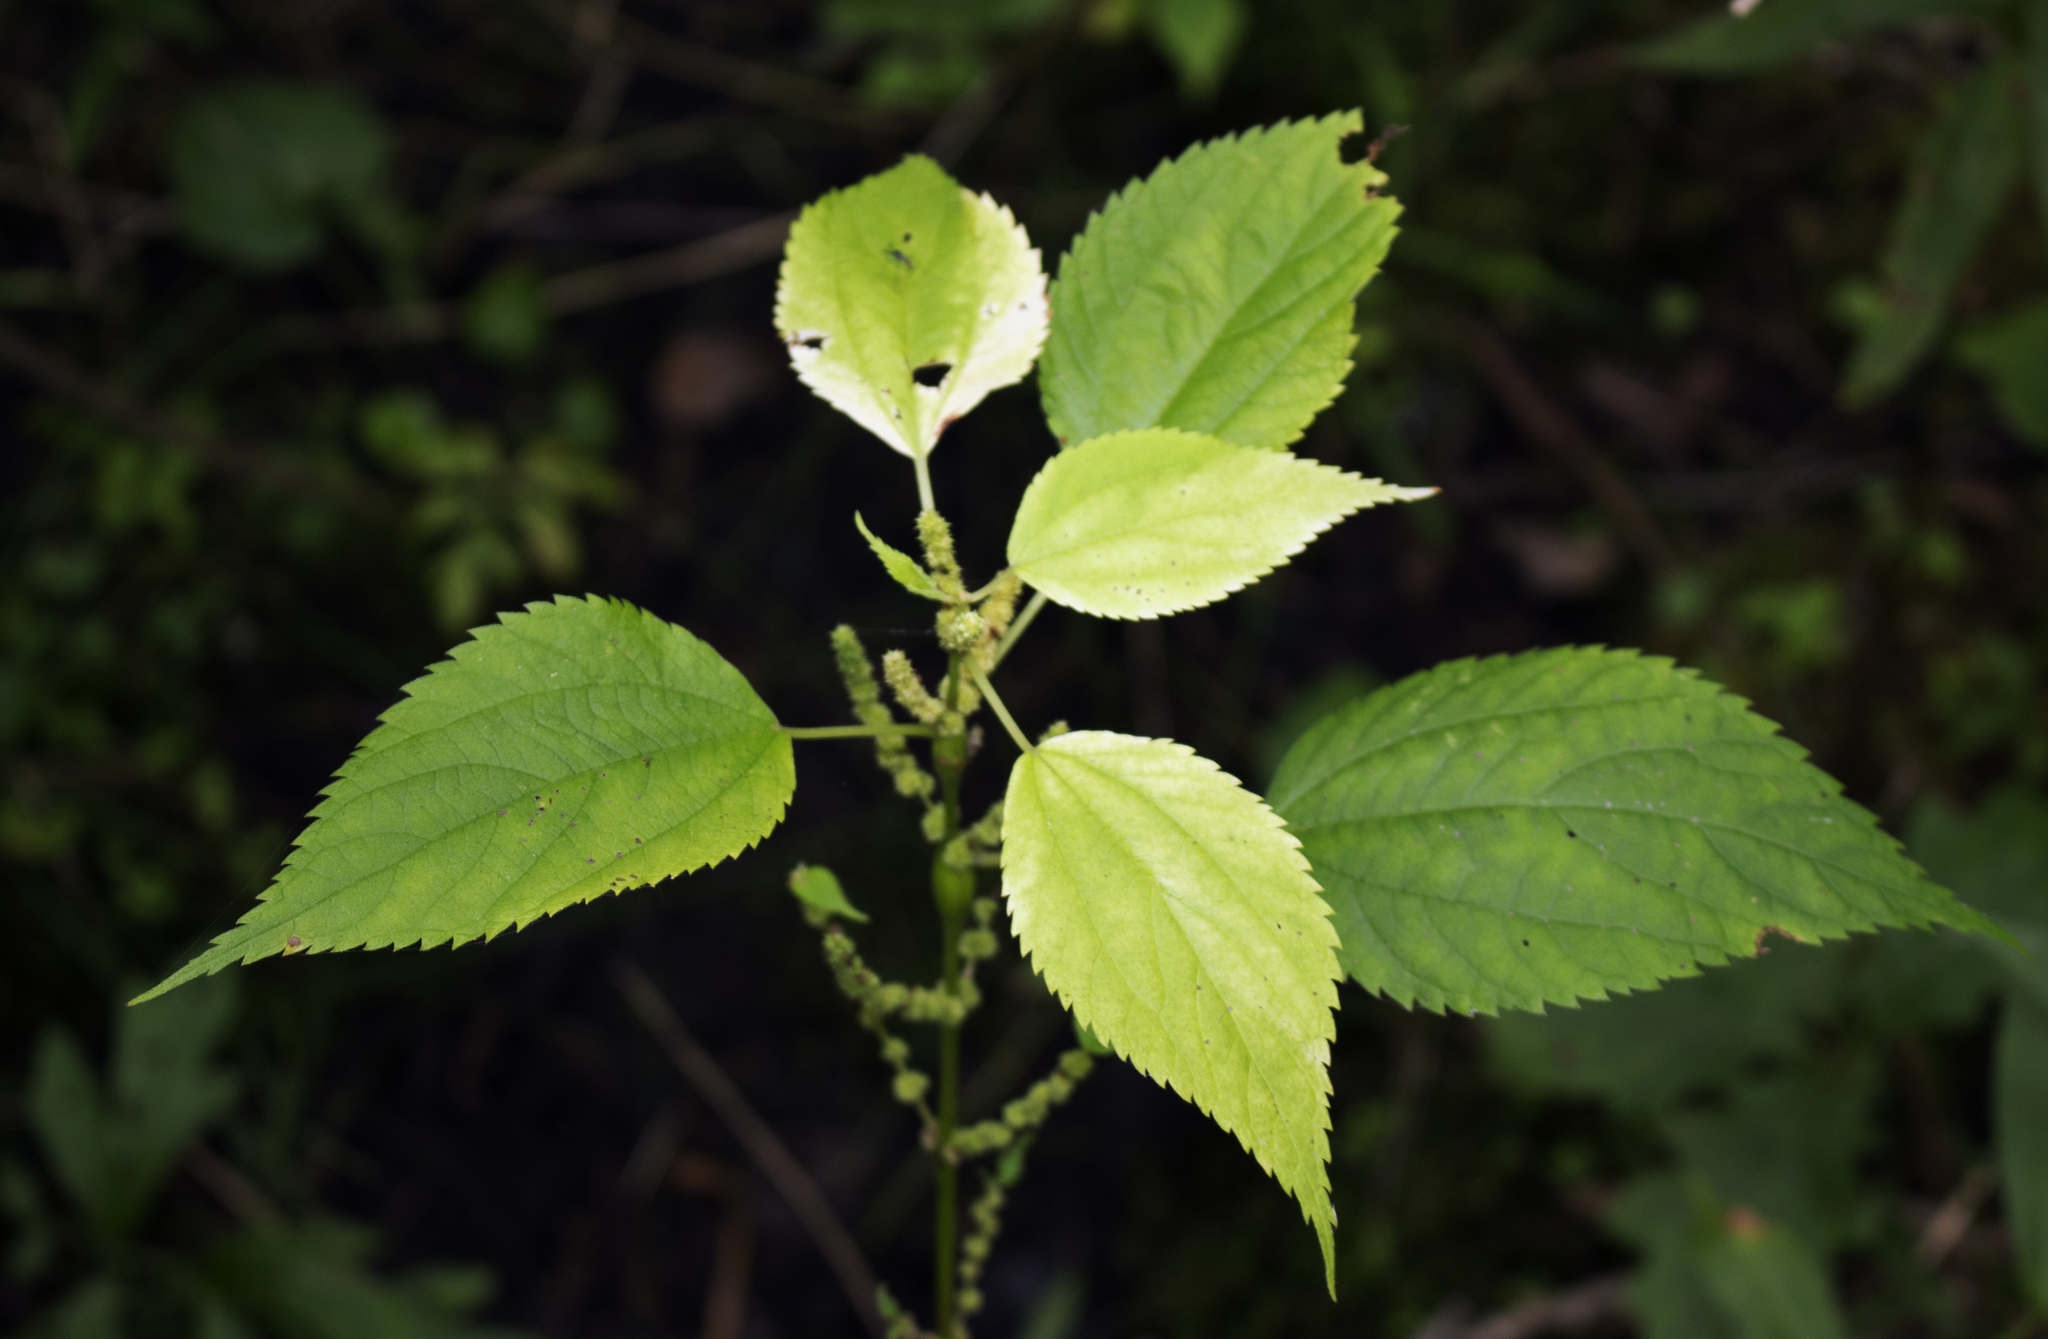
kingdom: Plantae
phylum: Tracheophyta
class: Magnoliopsida
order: Rosales
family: Urticaceae
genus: Boehmeria
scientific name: Boehmeria cylindrica
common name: Bog-hemp
